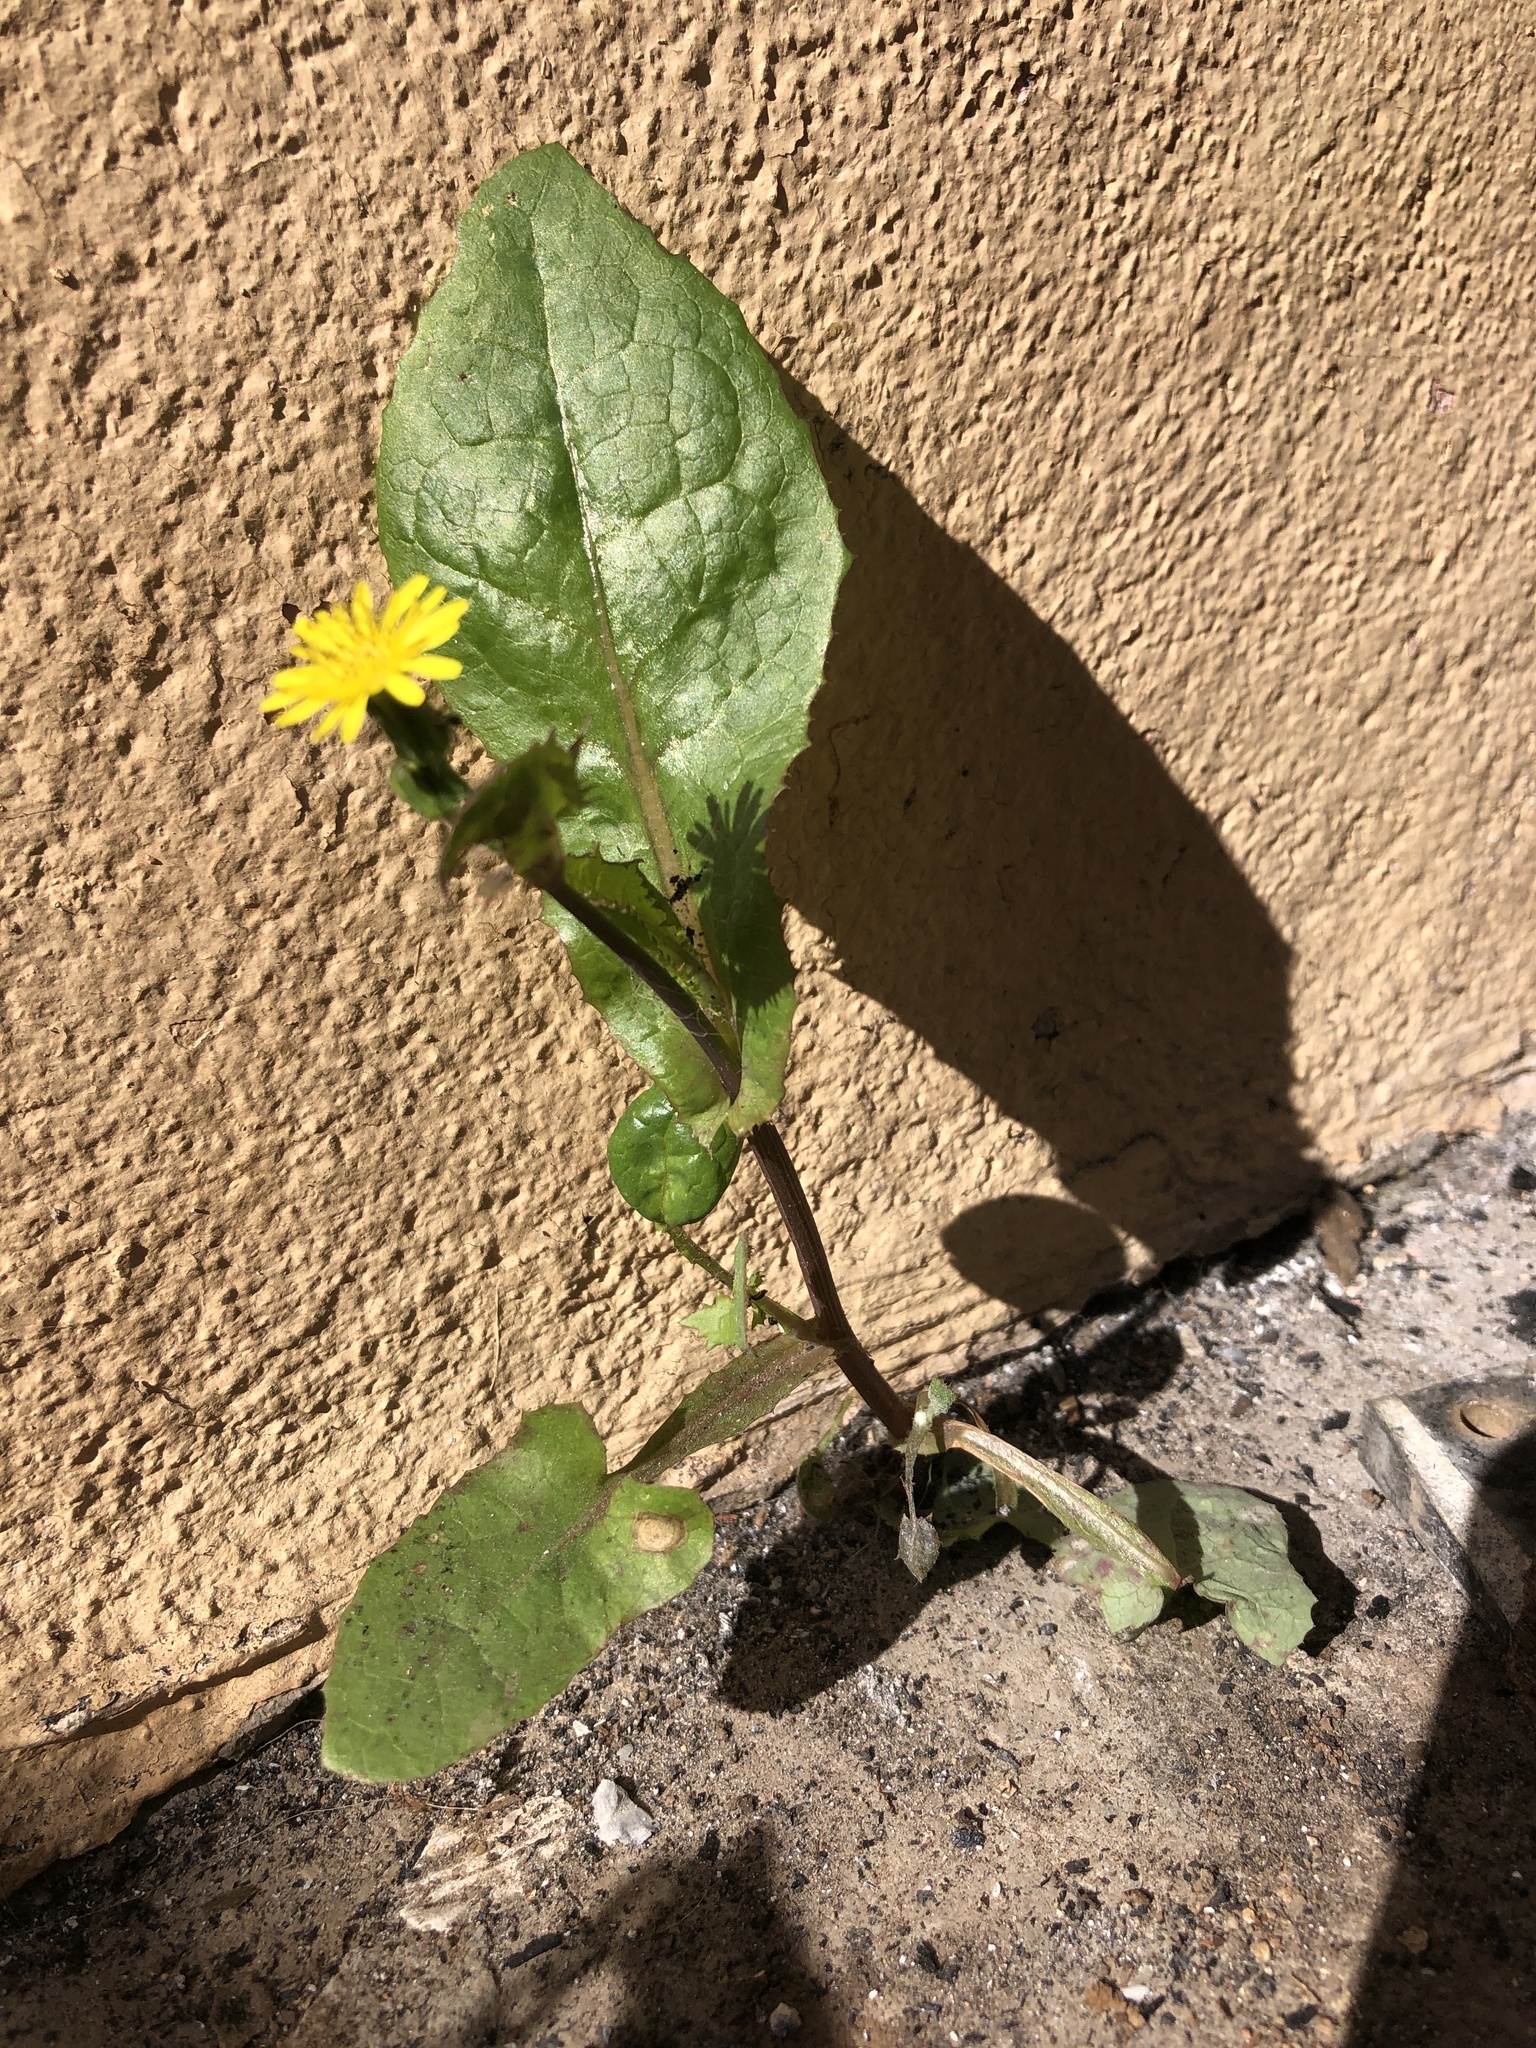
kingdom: Plantae
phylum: Tracheophyta
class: Magnoliopsida
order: Asterales
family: Asteraceae
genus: Sonchus
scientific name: Sonchus oleraceus
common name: Common sowthistle
